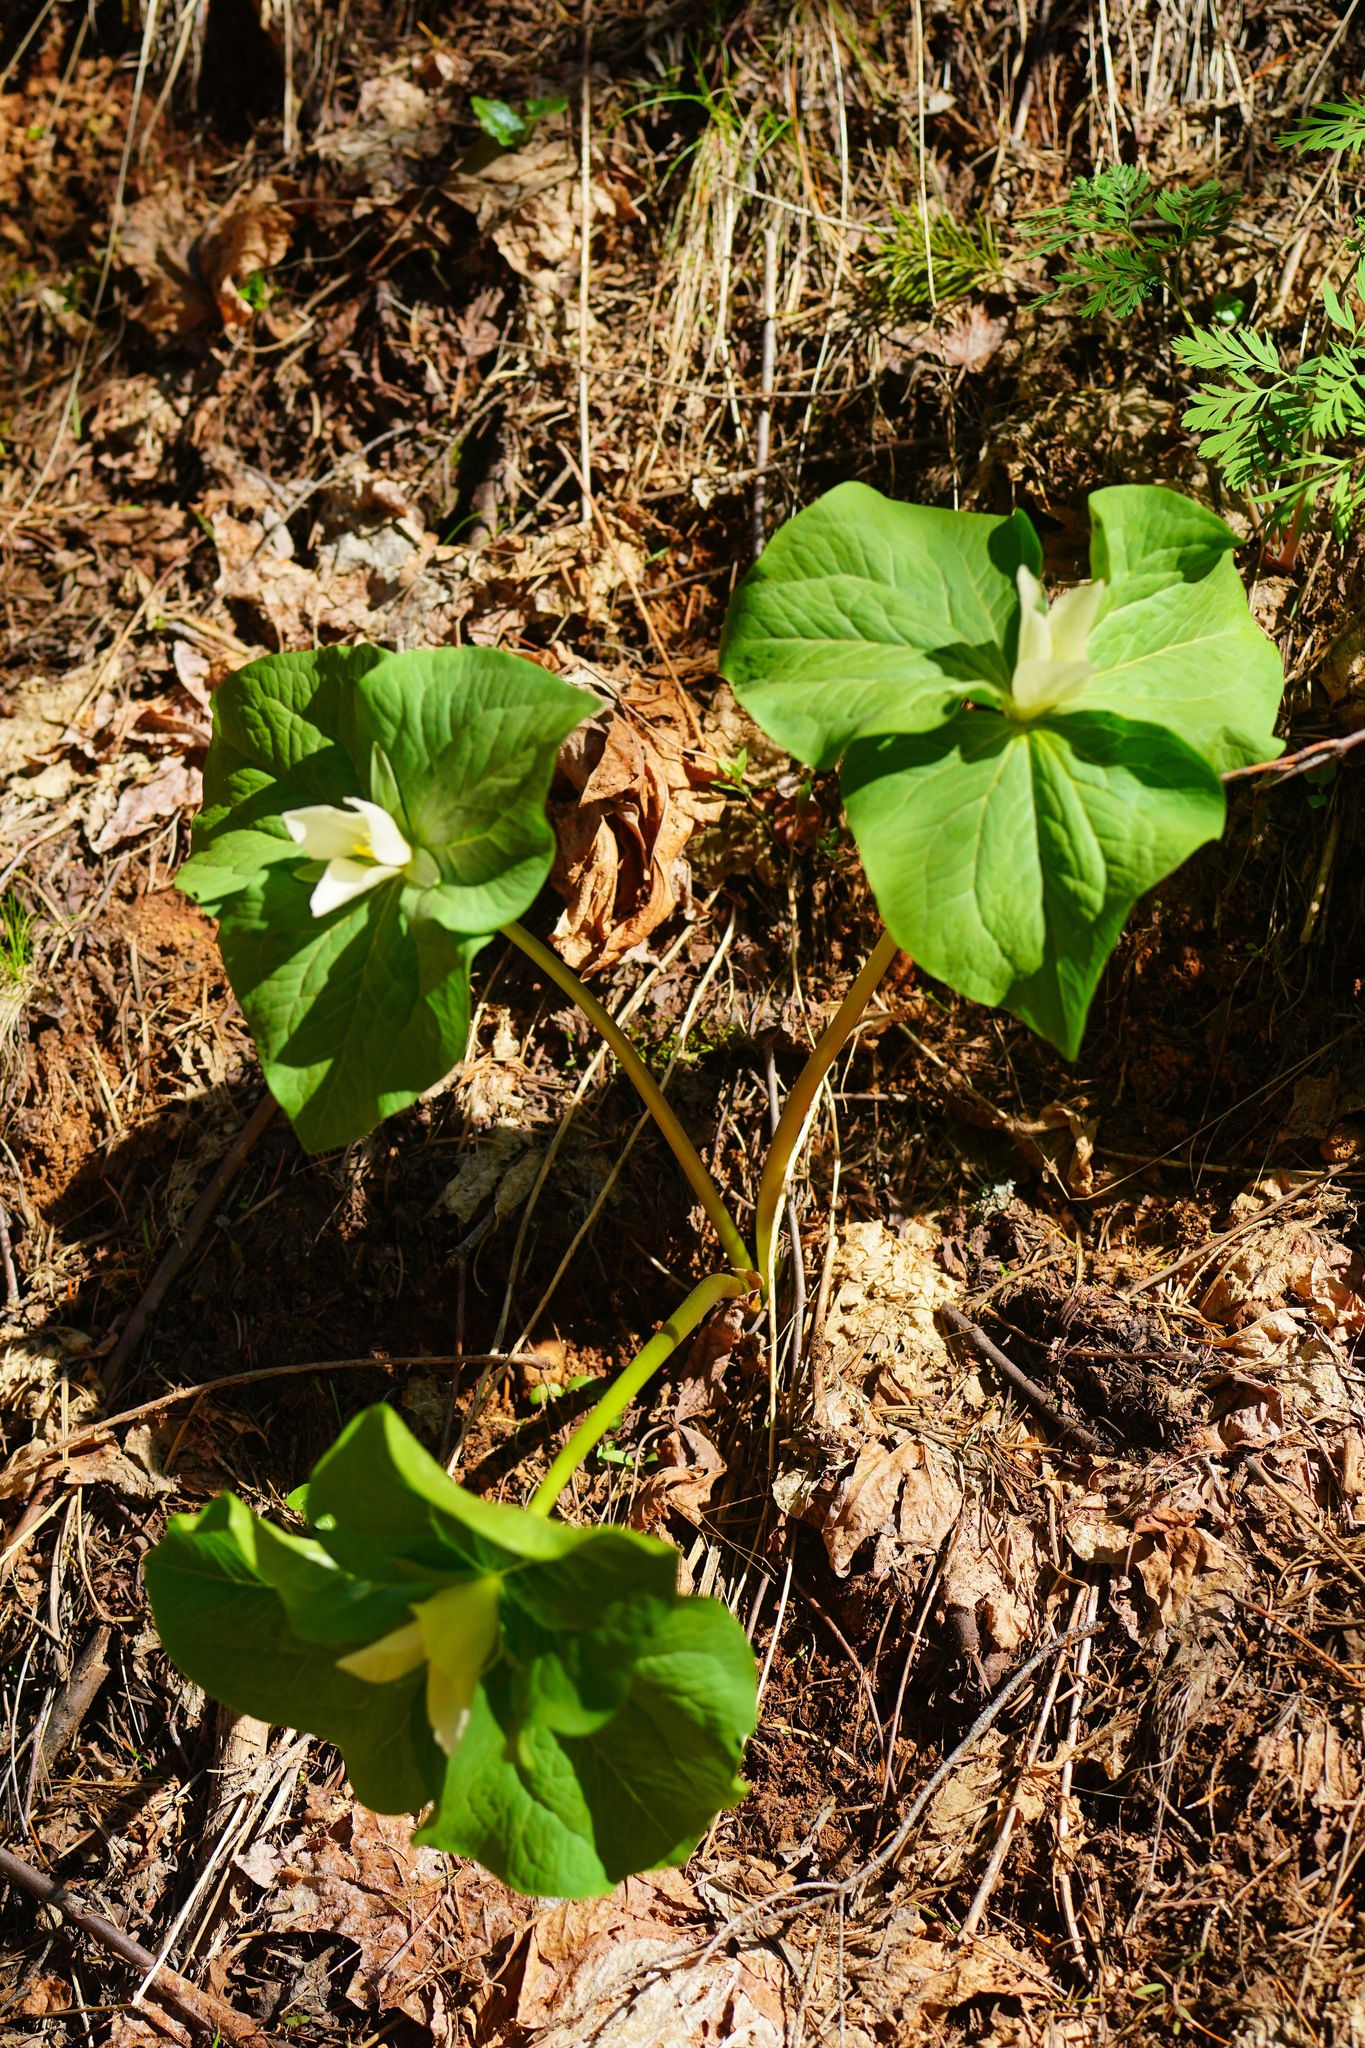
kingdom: Plantae
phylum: Tracheophyta
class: Liliopsida
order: Liliales
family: Melanthiaceae
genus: Trillium
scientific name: Trillium albidum
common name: Freeman's trillium
